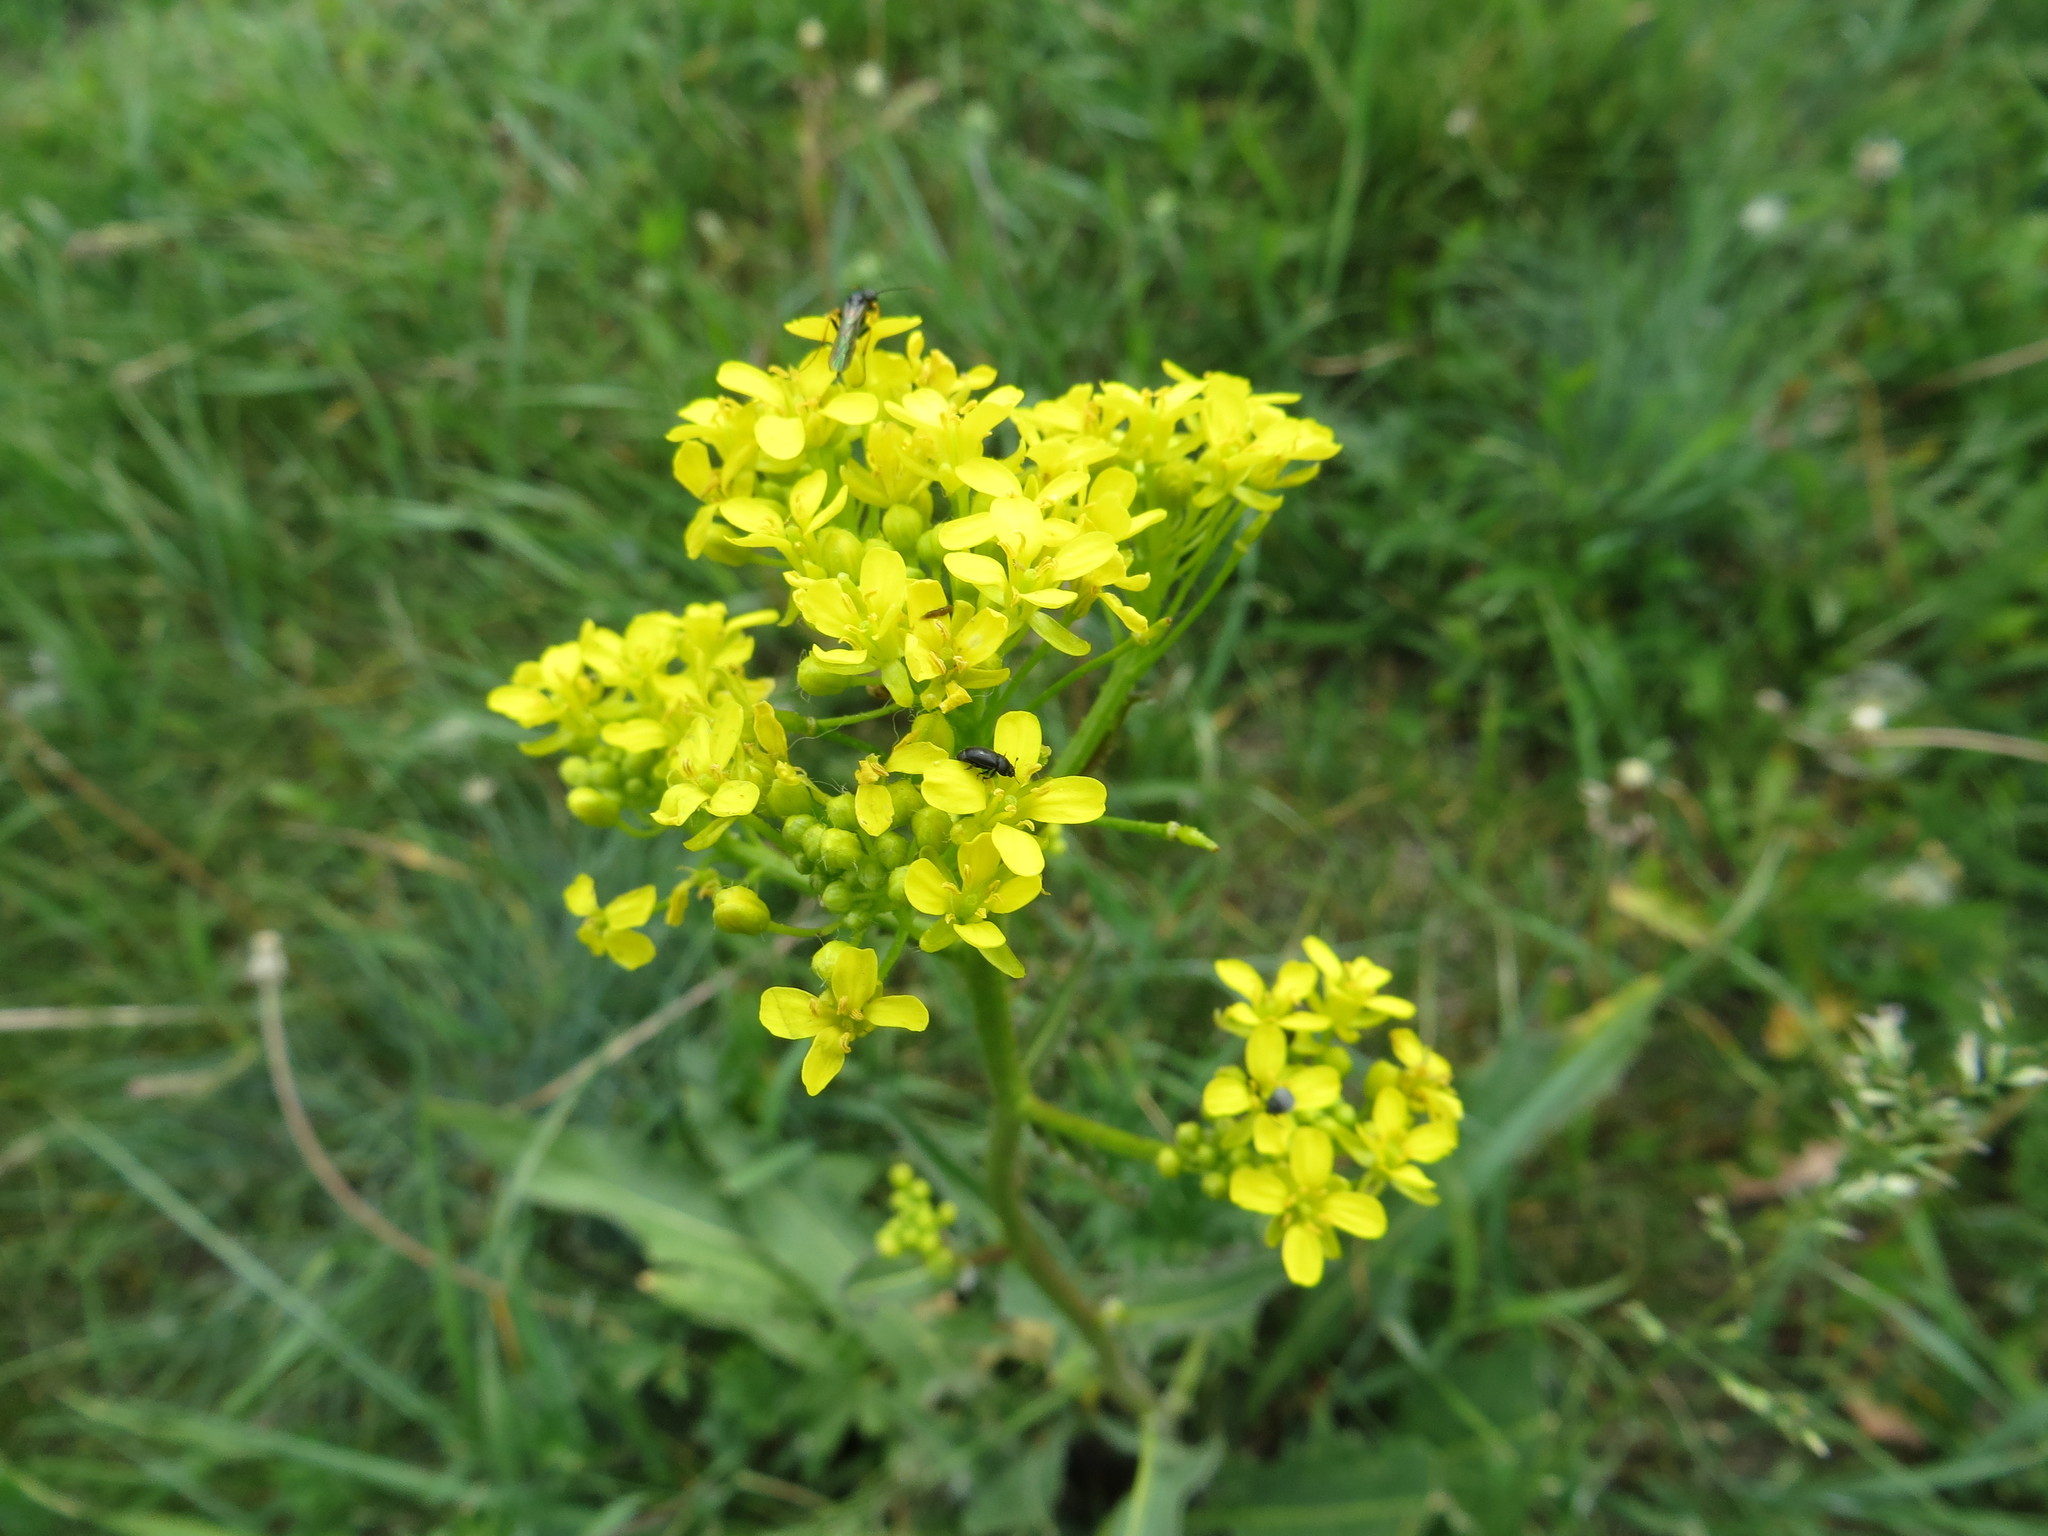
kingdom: Plantae
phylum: Tracheophyta
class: Magnoliopsida
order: Brassicales
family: Brassicaceae
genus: Bunias
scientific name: Bunias orientalis
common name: Warty-cabbage
